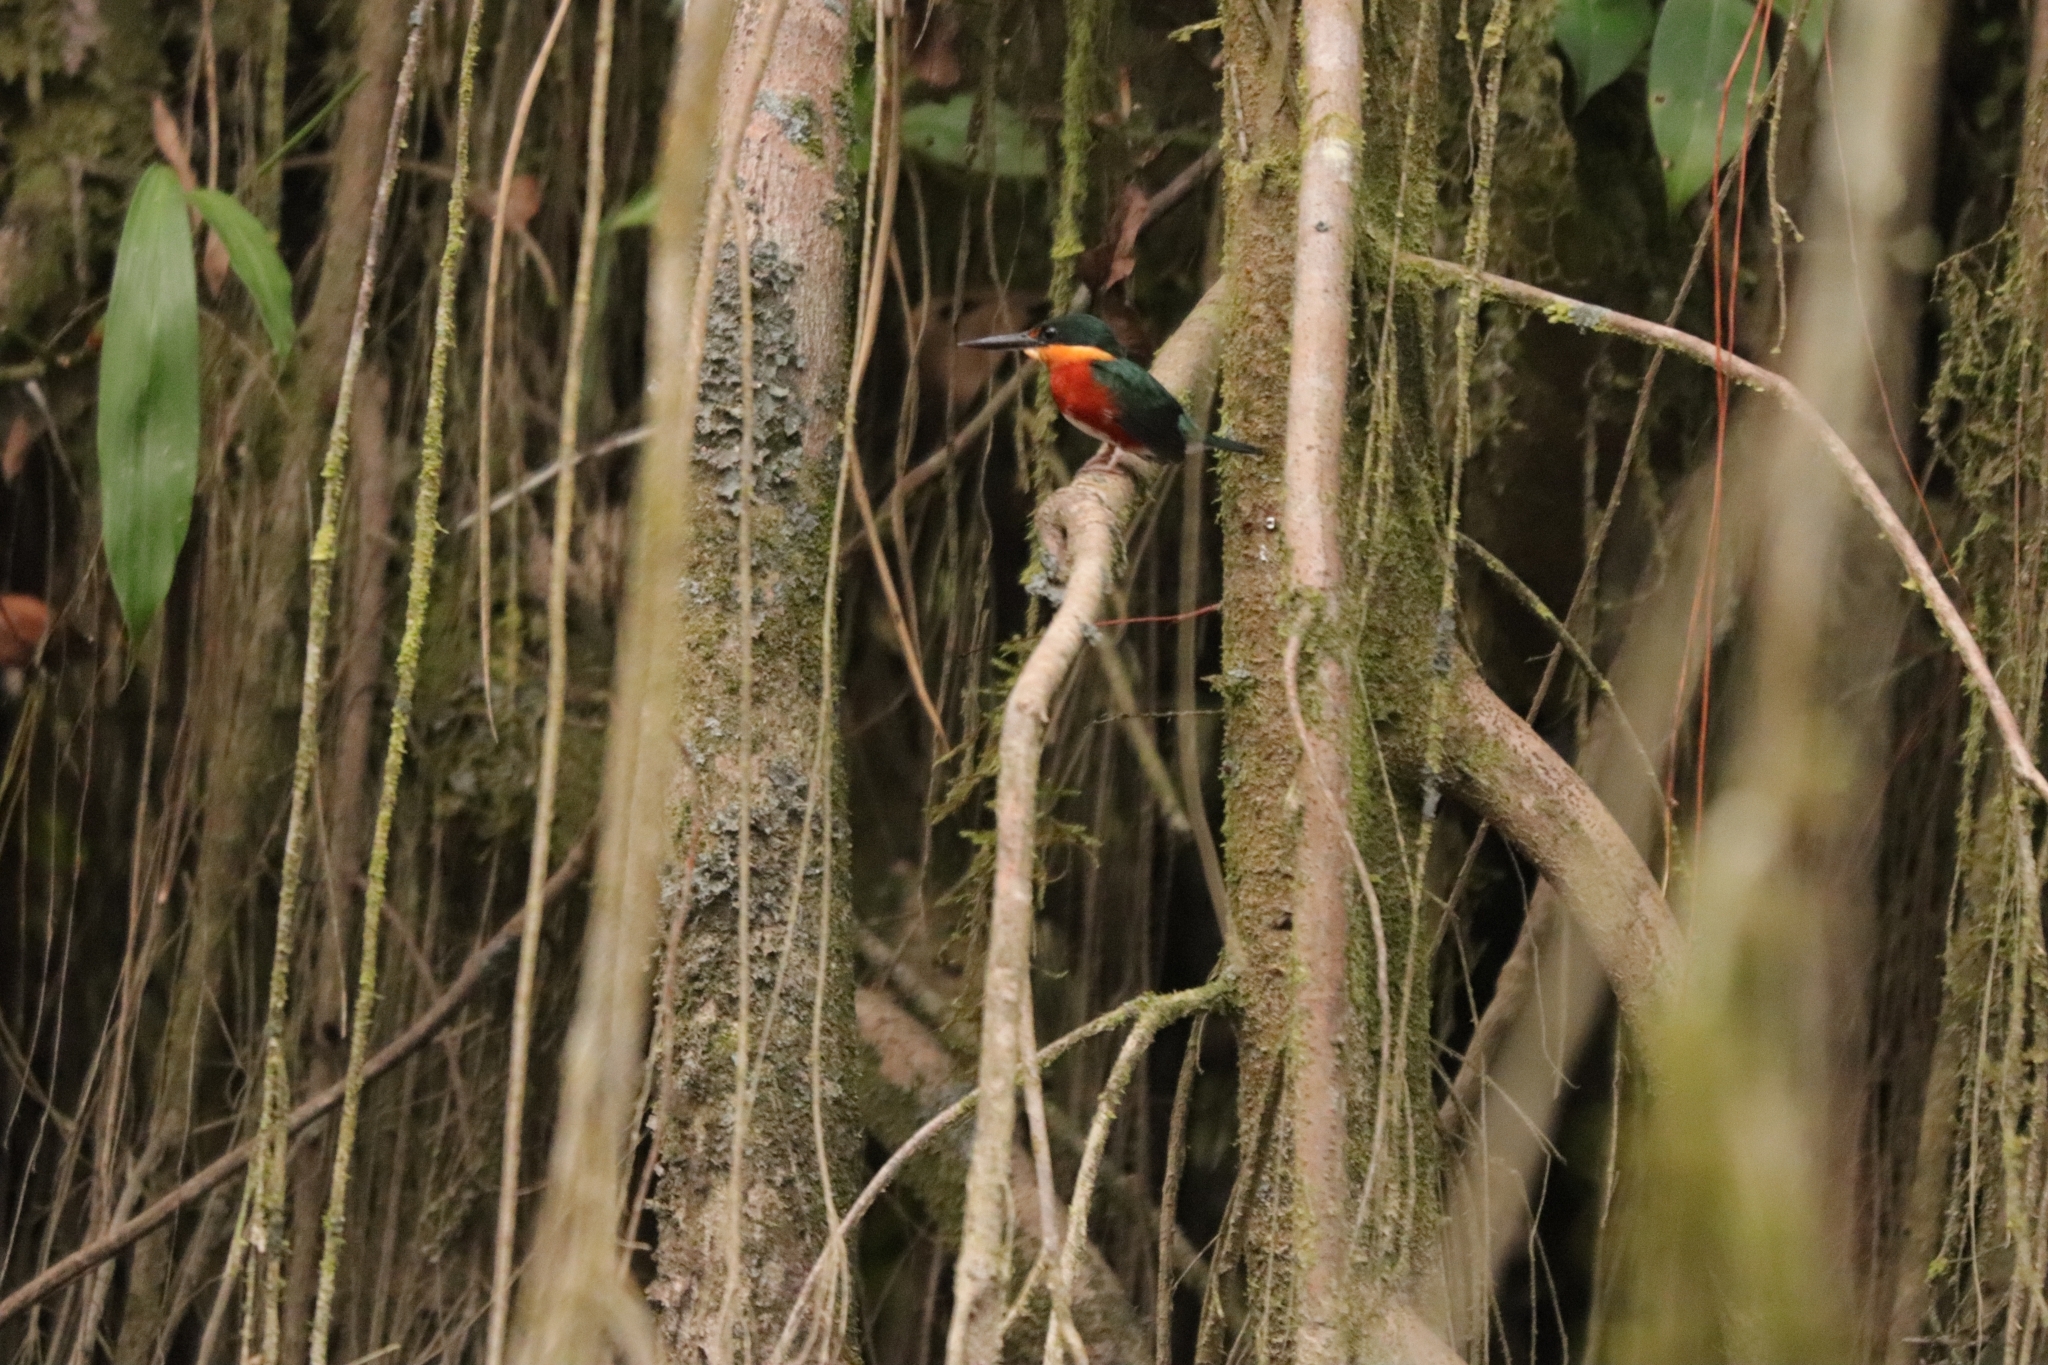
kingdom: Animalia
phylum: Chordata
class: Aves
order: Coraciiformes
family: Alcedinidae
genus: Chloroceryle
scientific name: Chloroceryle aenea
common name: American pygmy kingfisher
